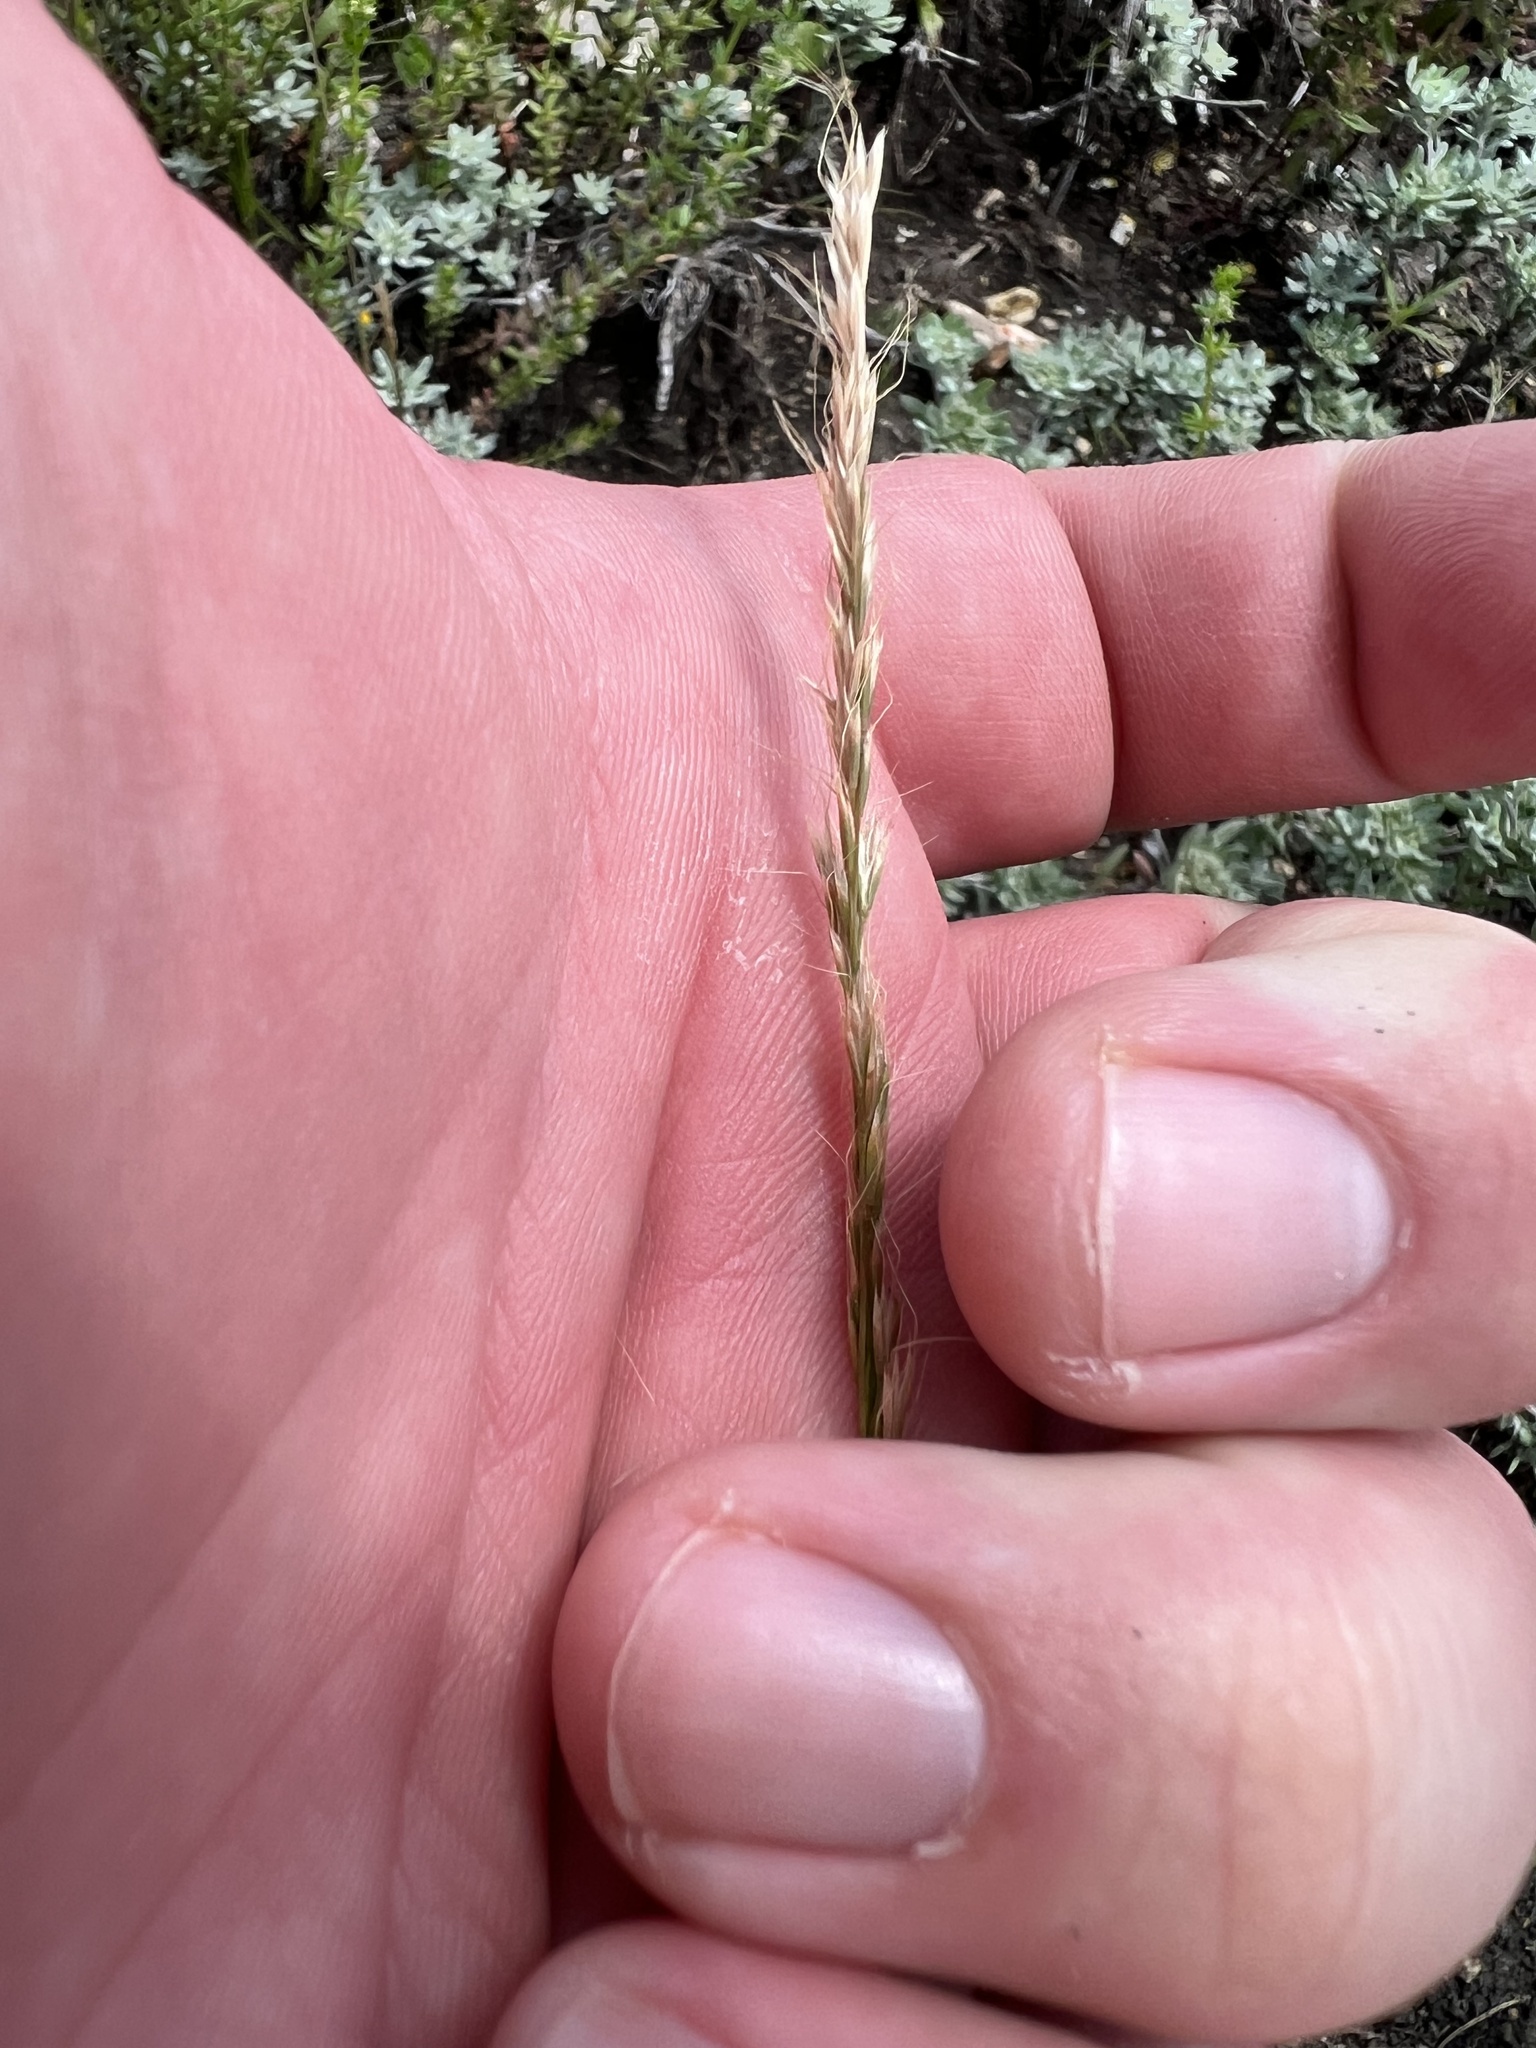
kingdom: Plantae
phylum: Tracheophyta
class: Liliopsida
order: Poales
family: Poaceae
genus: Trisetum
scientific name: Trisetum interruptum
